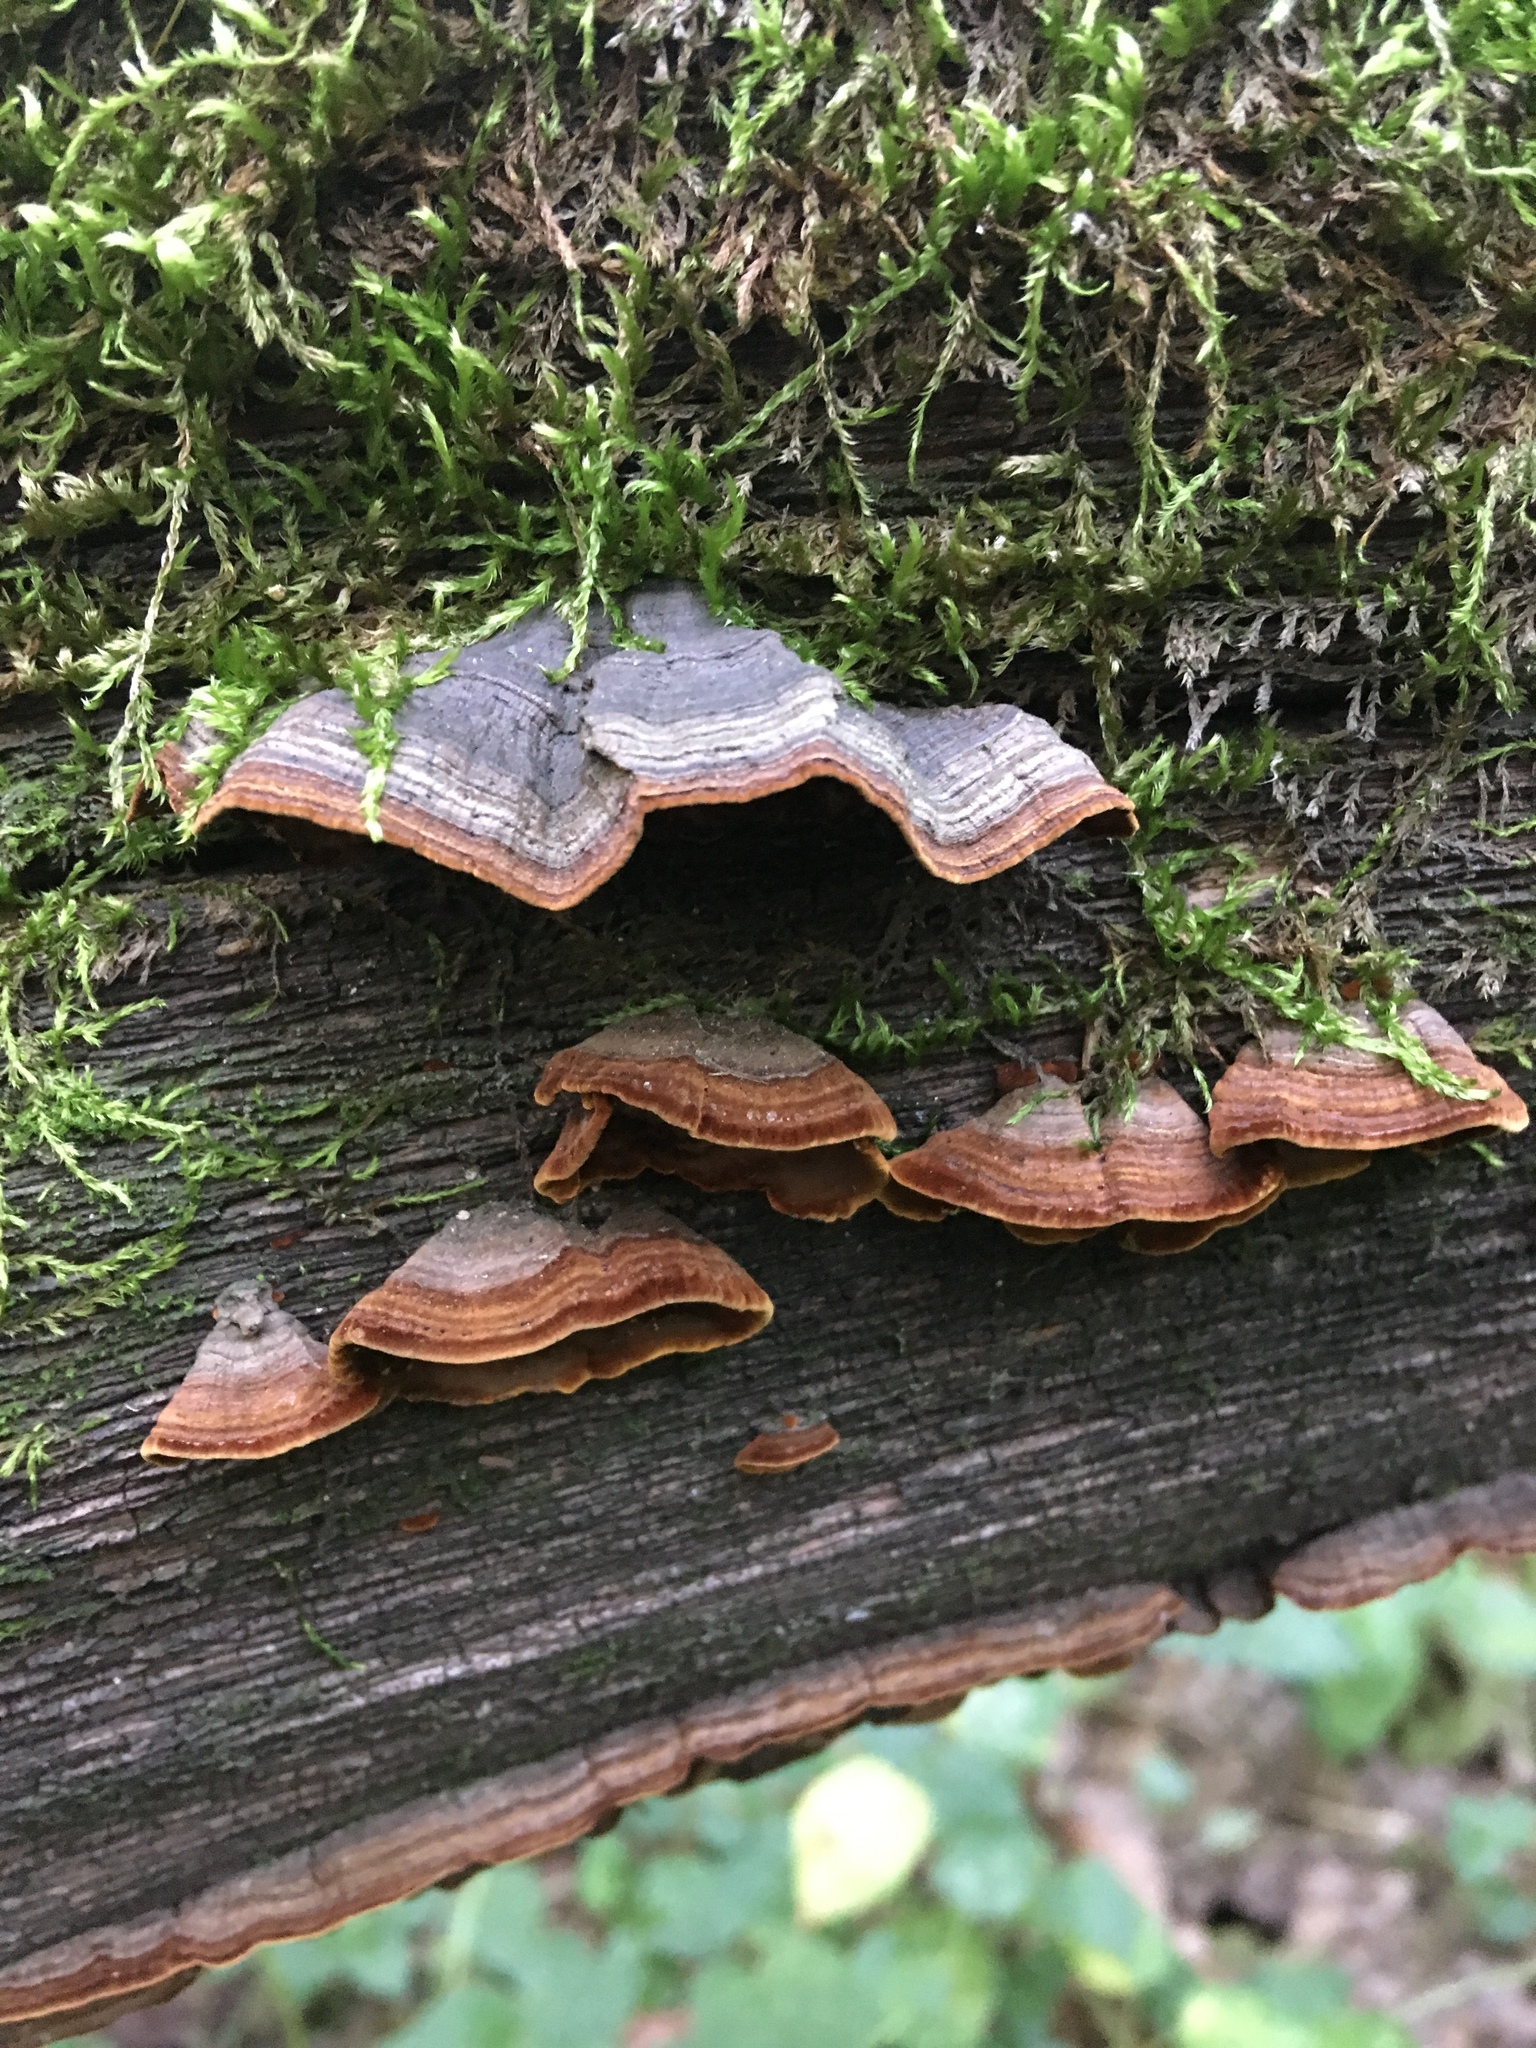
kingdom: Fungi
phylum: Basidiomycota
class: Agaricomycetes
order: Hymenochaetales
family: Hymenochaetaceae
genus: Hymenochaete
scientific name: Hymenochaete rubiginosa
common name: Oak curtain crust
